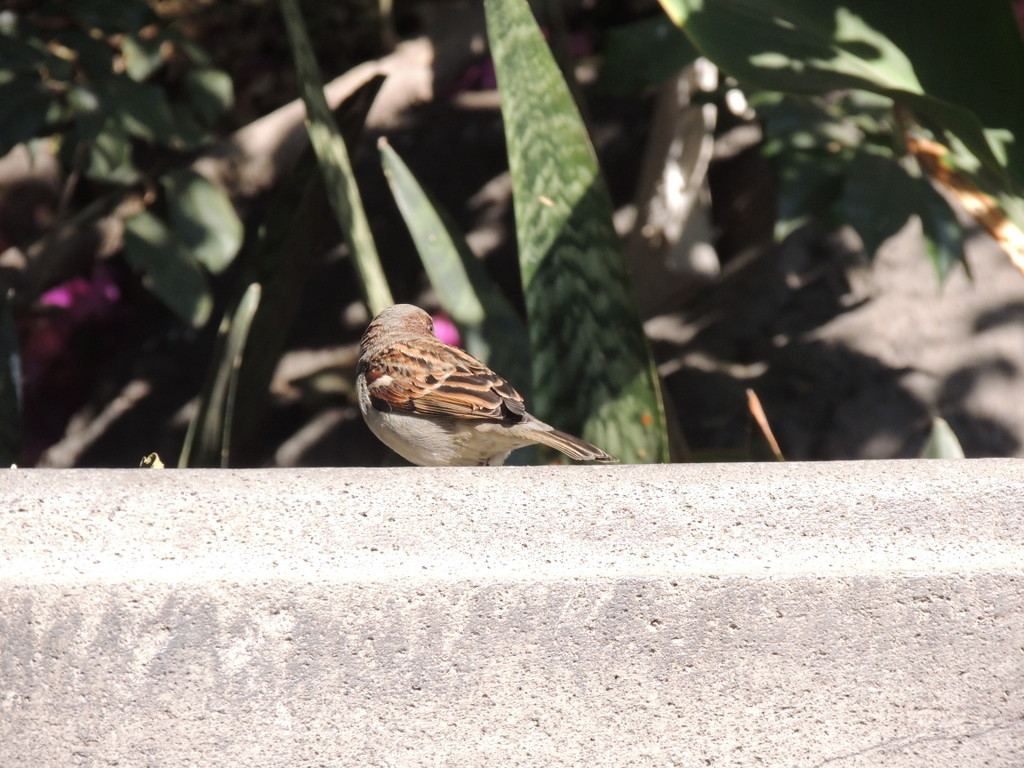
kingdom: Animalia
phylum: Chordata
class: Aves
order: Passeriformes
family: Passeridae
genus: Passer
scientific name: Passer domesticus
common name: House sparrow
